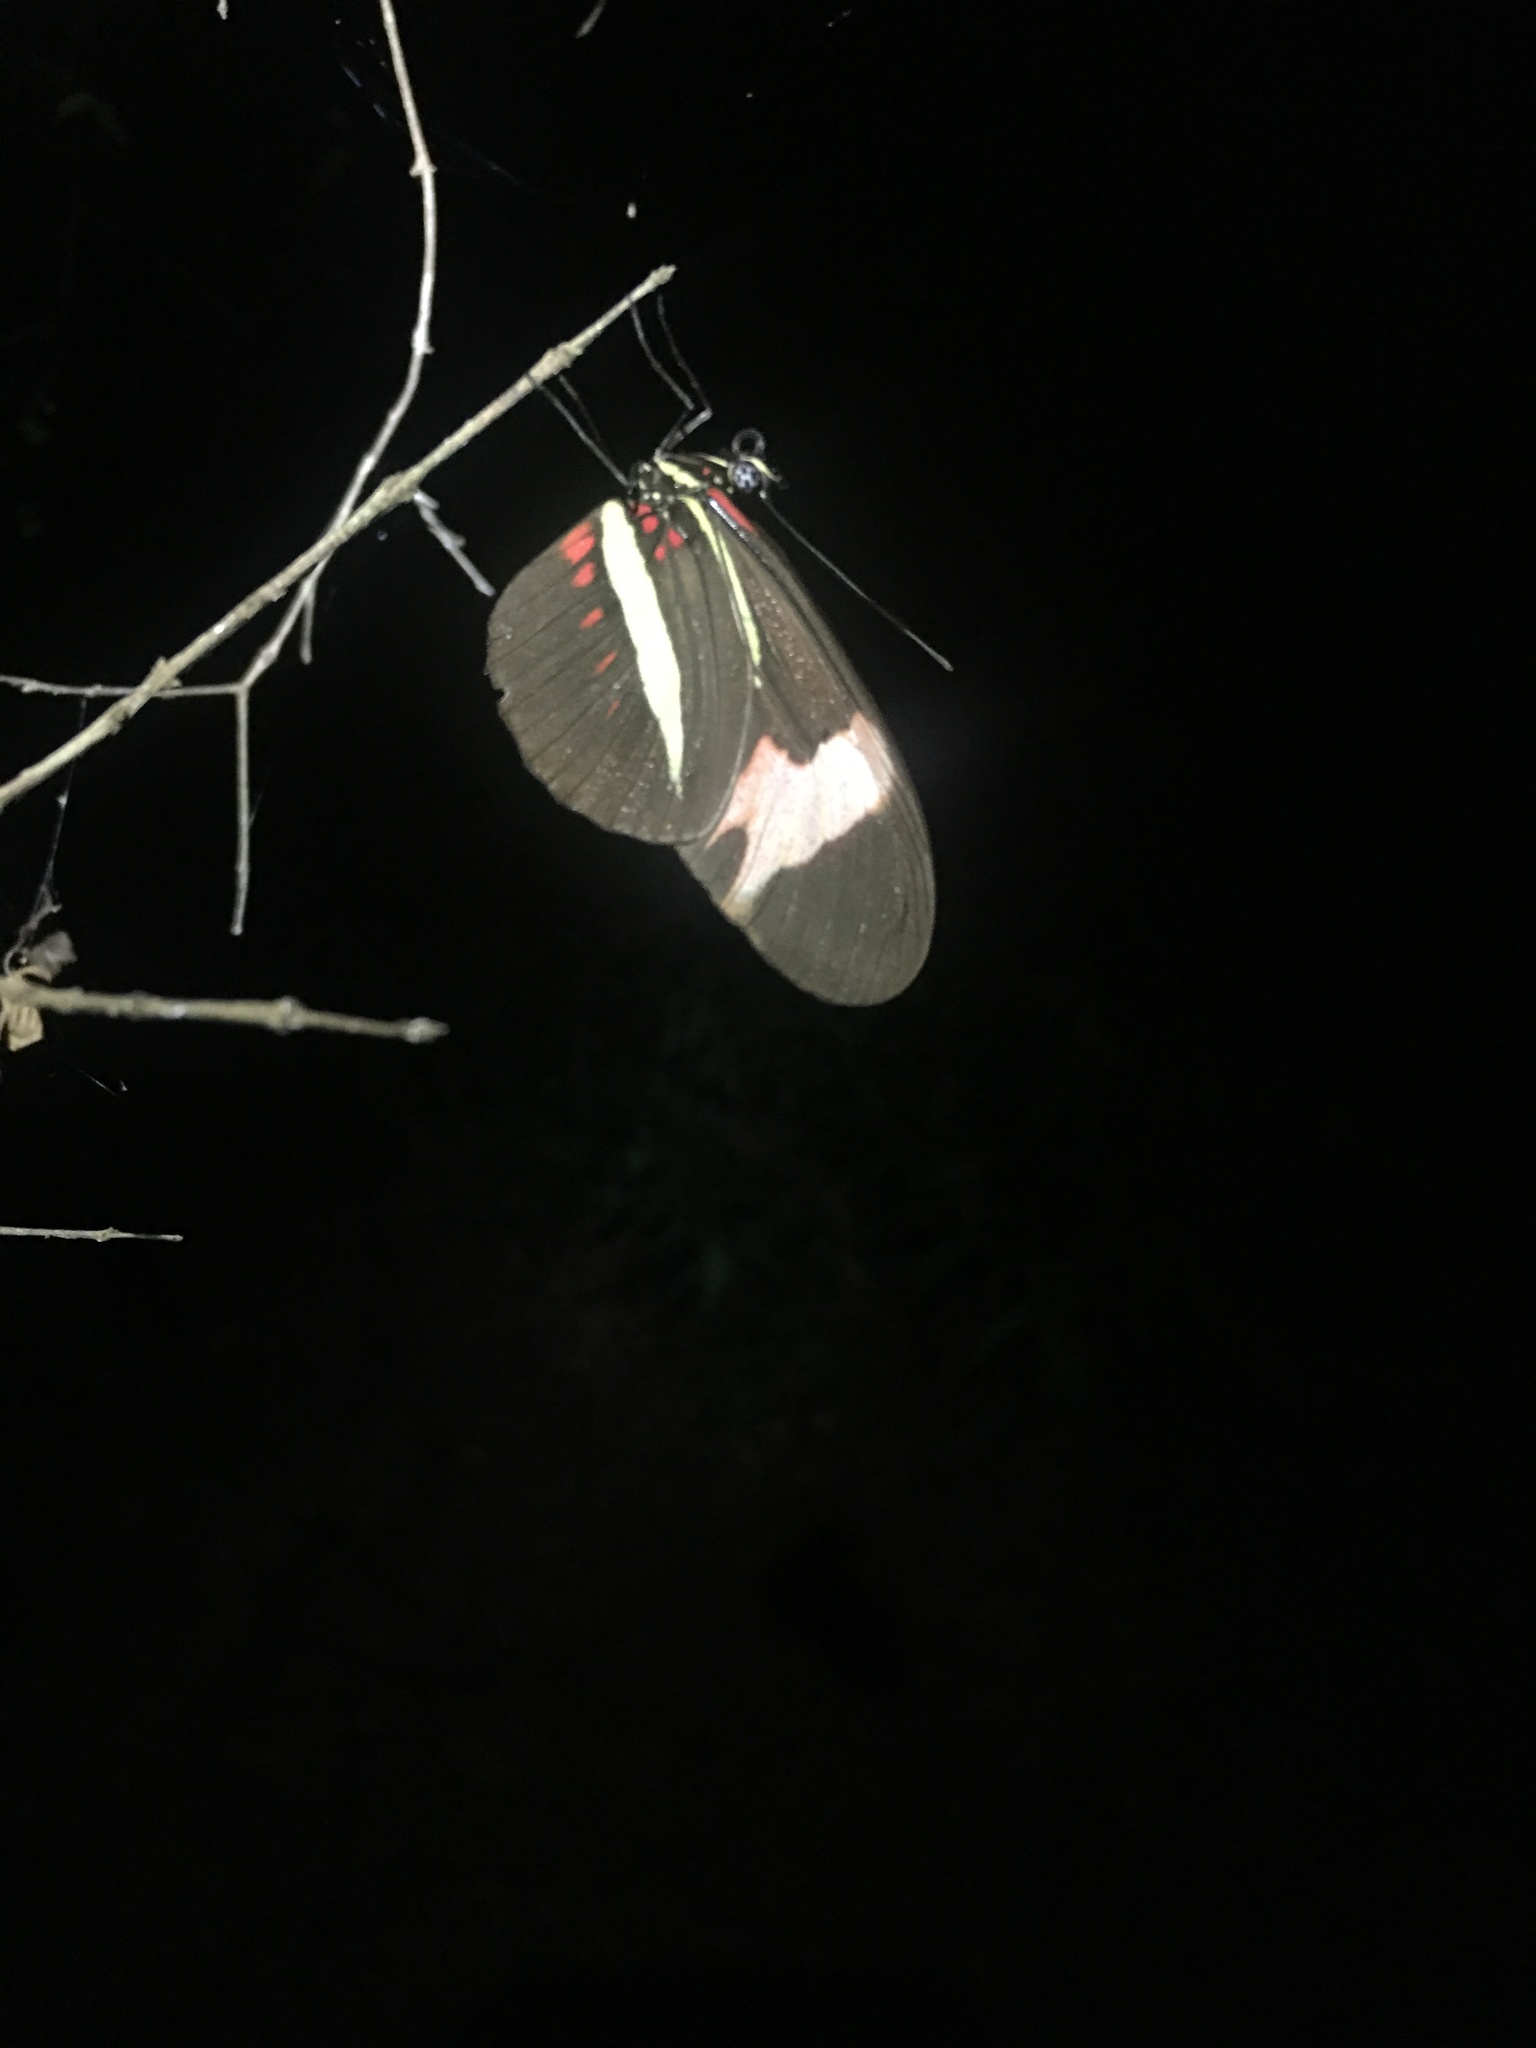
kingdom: Animalia
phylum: Arthropoda
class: Insecta
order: Lepidoptera
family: Nymphalidae
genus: Heliconius
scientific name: Heliconius erato
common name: Common patch longwing
